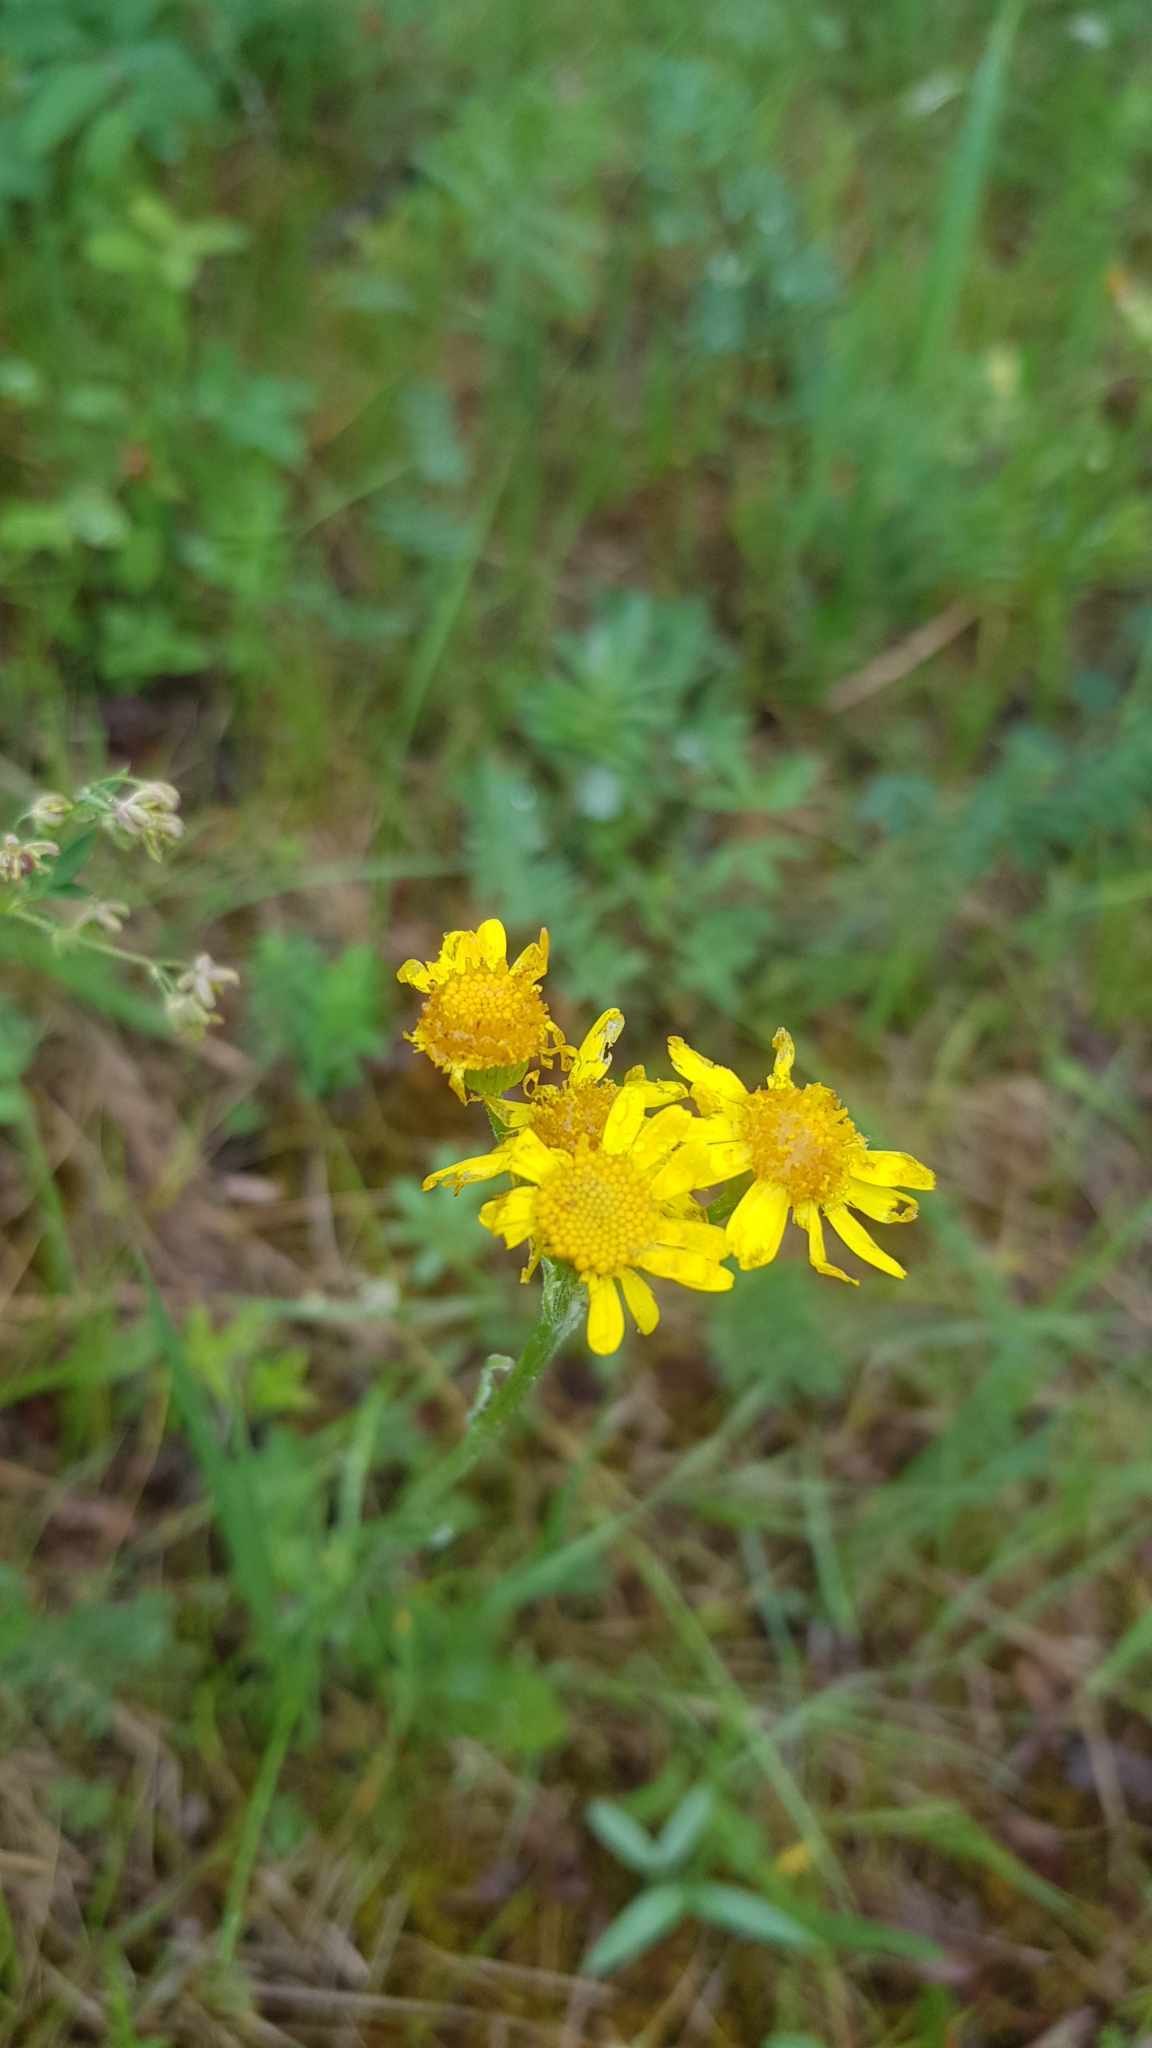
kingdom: Plantae
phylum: Tracheophyta
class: Magnoliopsida
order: Asterales
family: Asteraceae
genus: Tephroseris
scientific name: Tephroseris integrifolia
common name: Field fleawort
